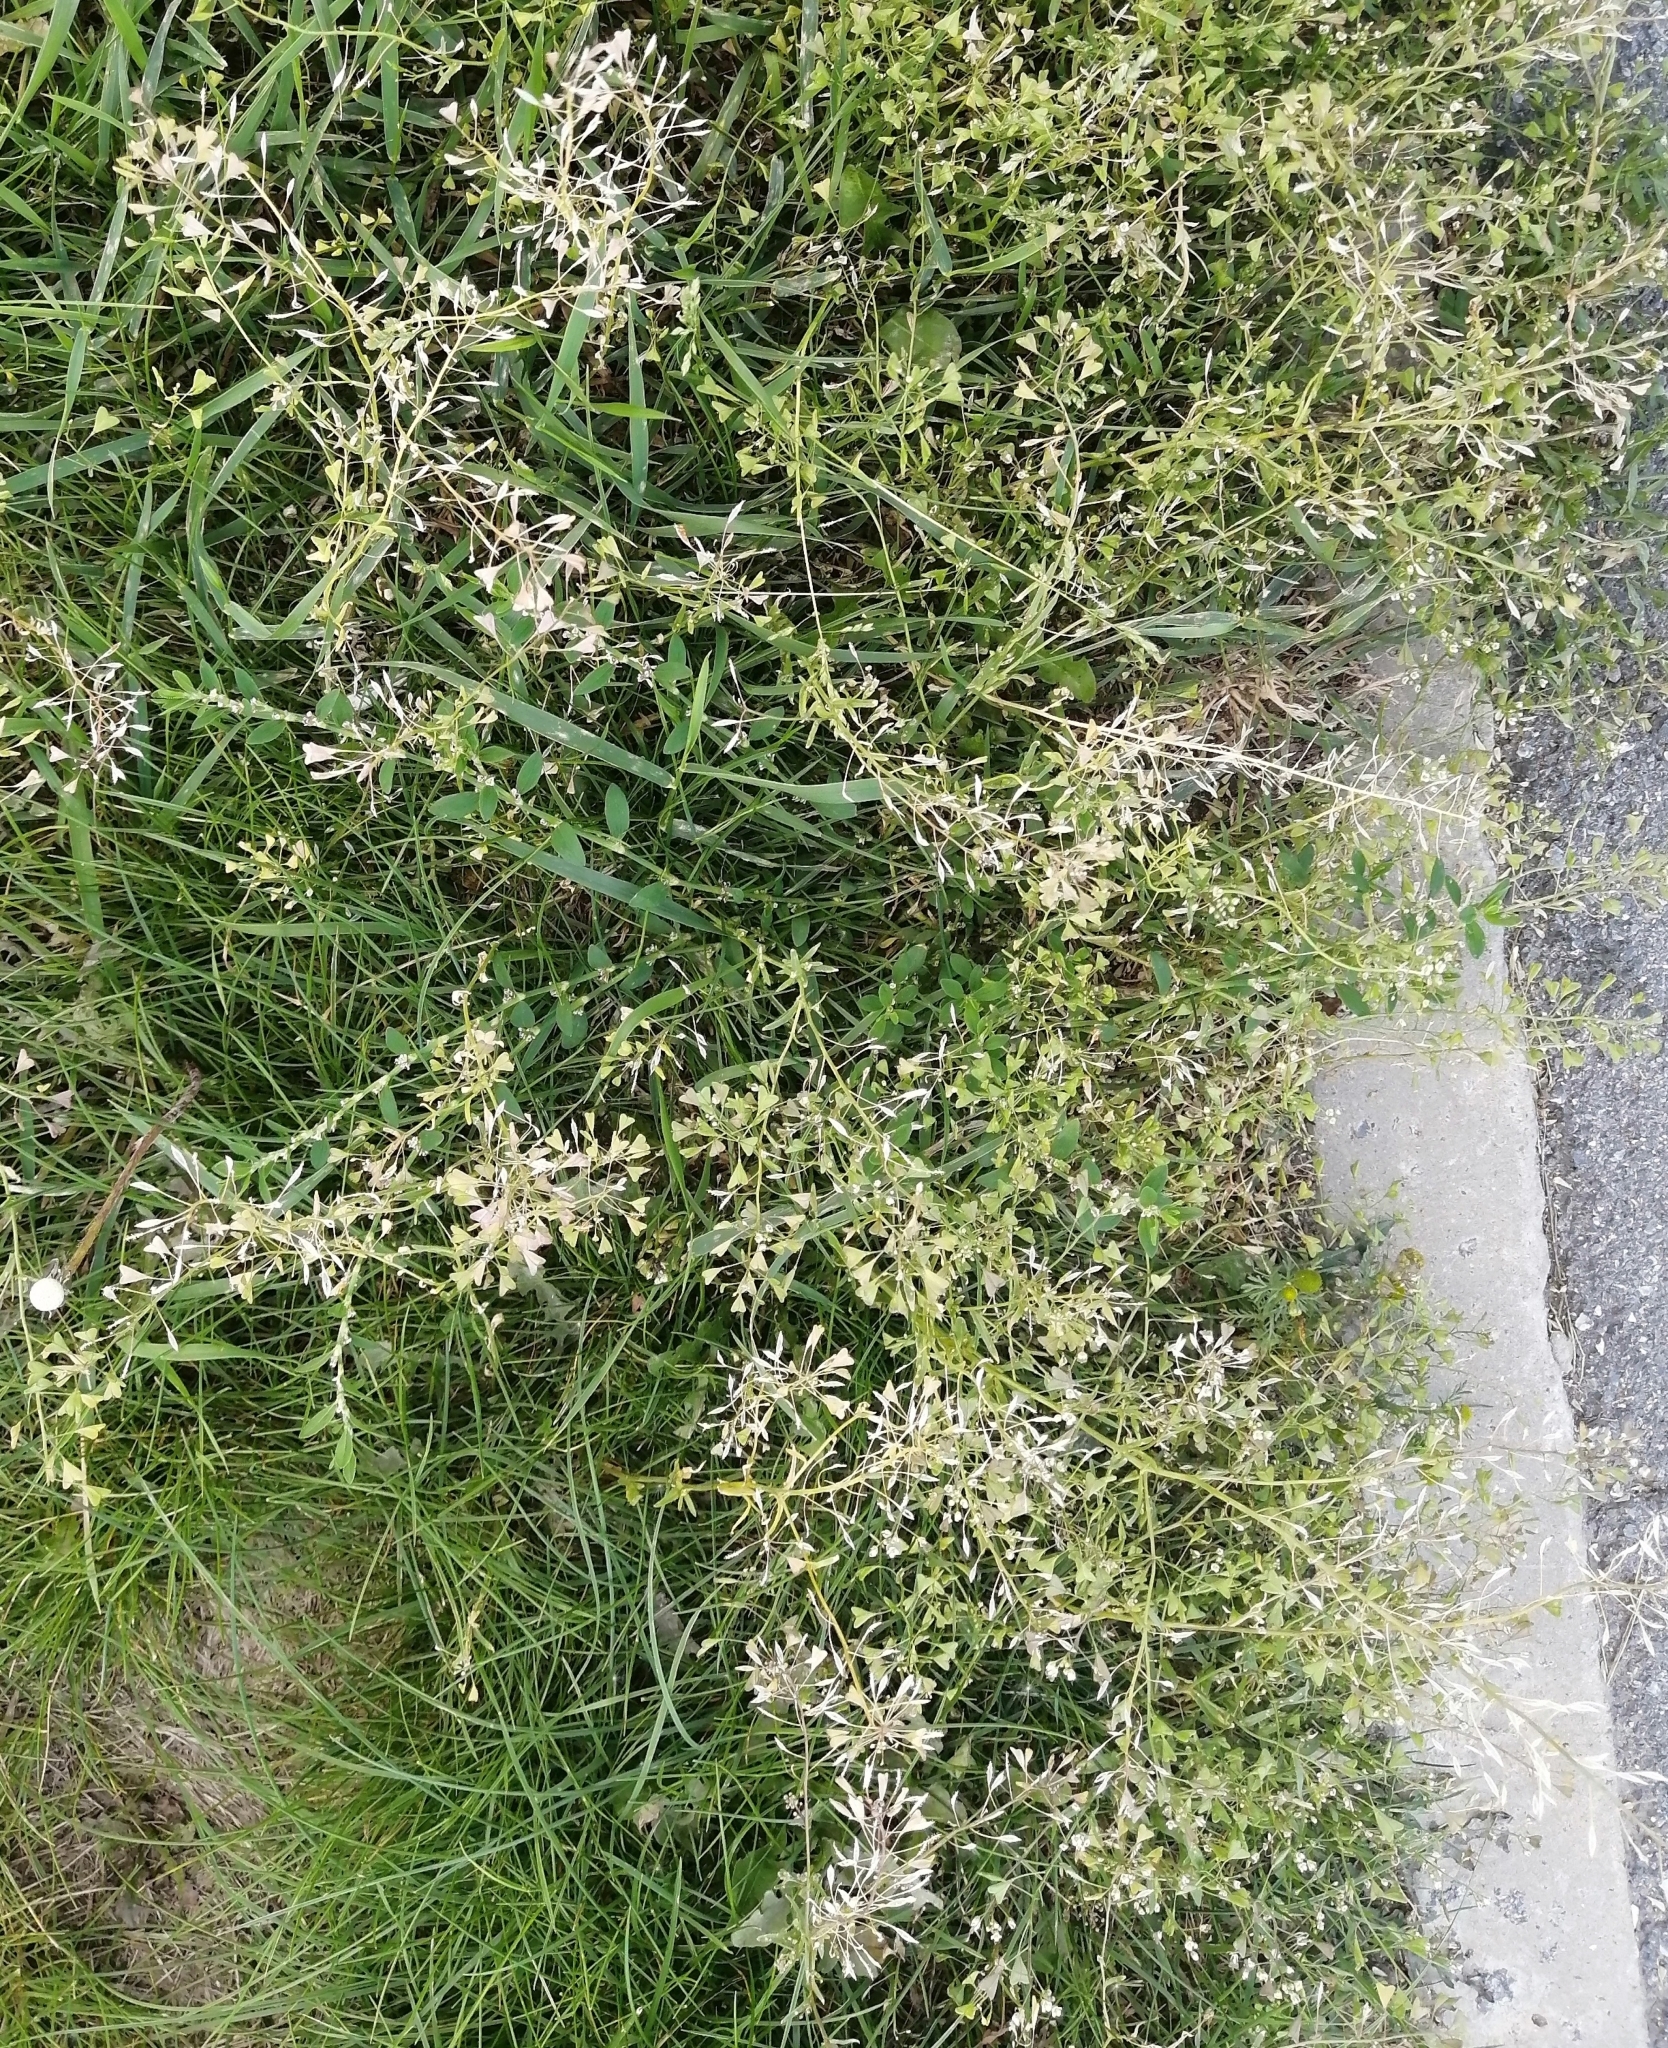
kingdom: Plantae
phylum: Tracheophyta
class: Magnoliopsida
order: Brassicales
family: Brassicaceae
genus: Capsella
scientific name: Capsella bursa-pastoris
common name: Shepherd's purse
